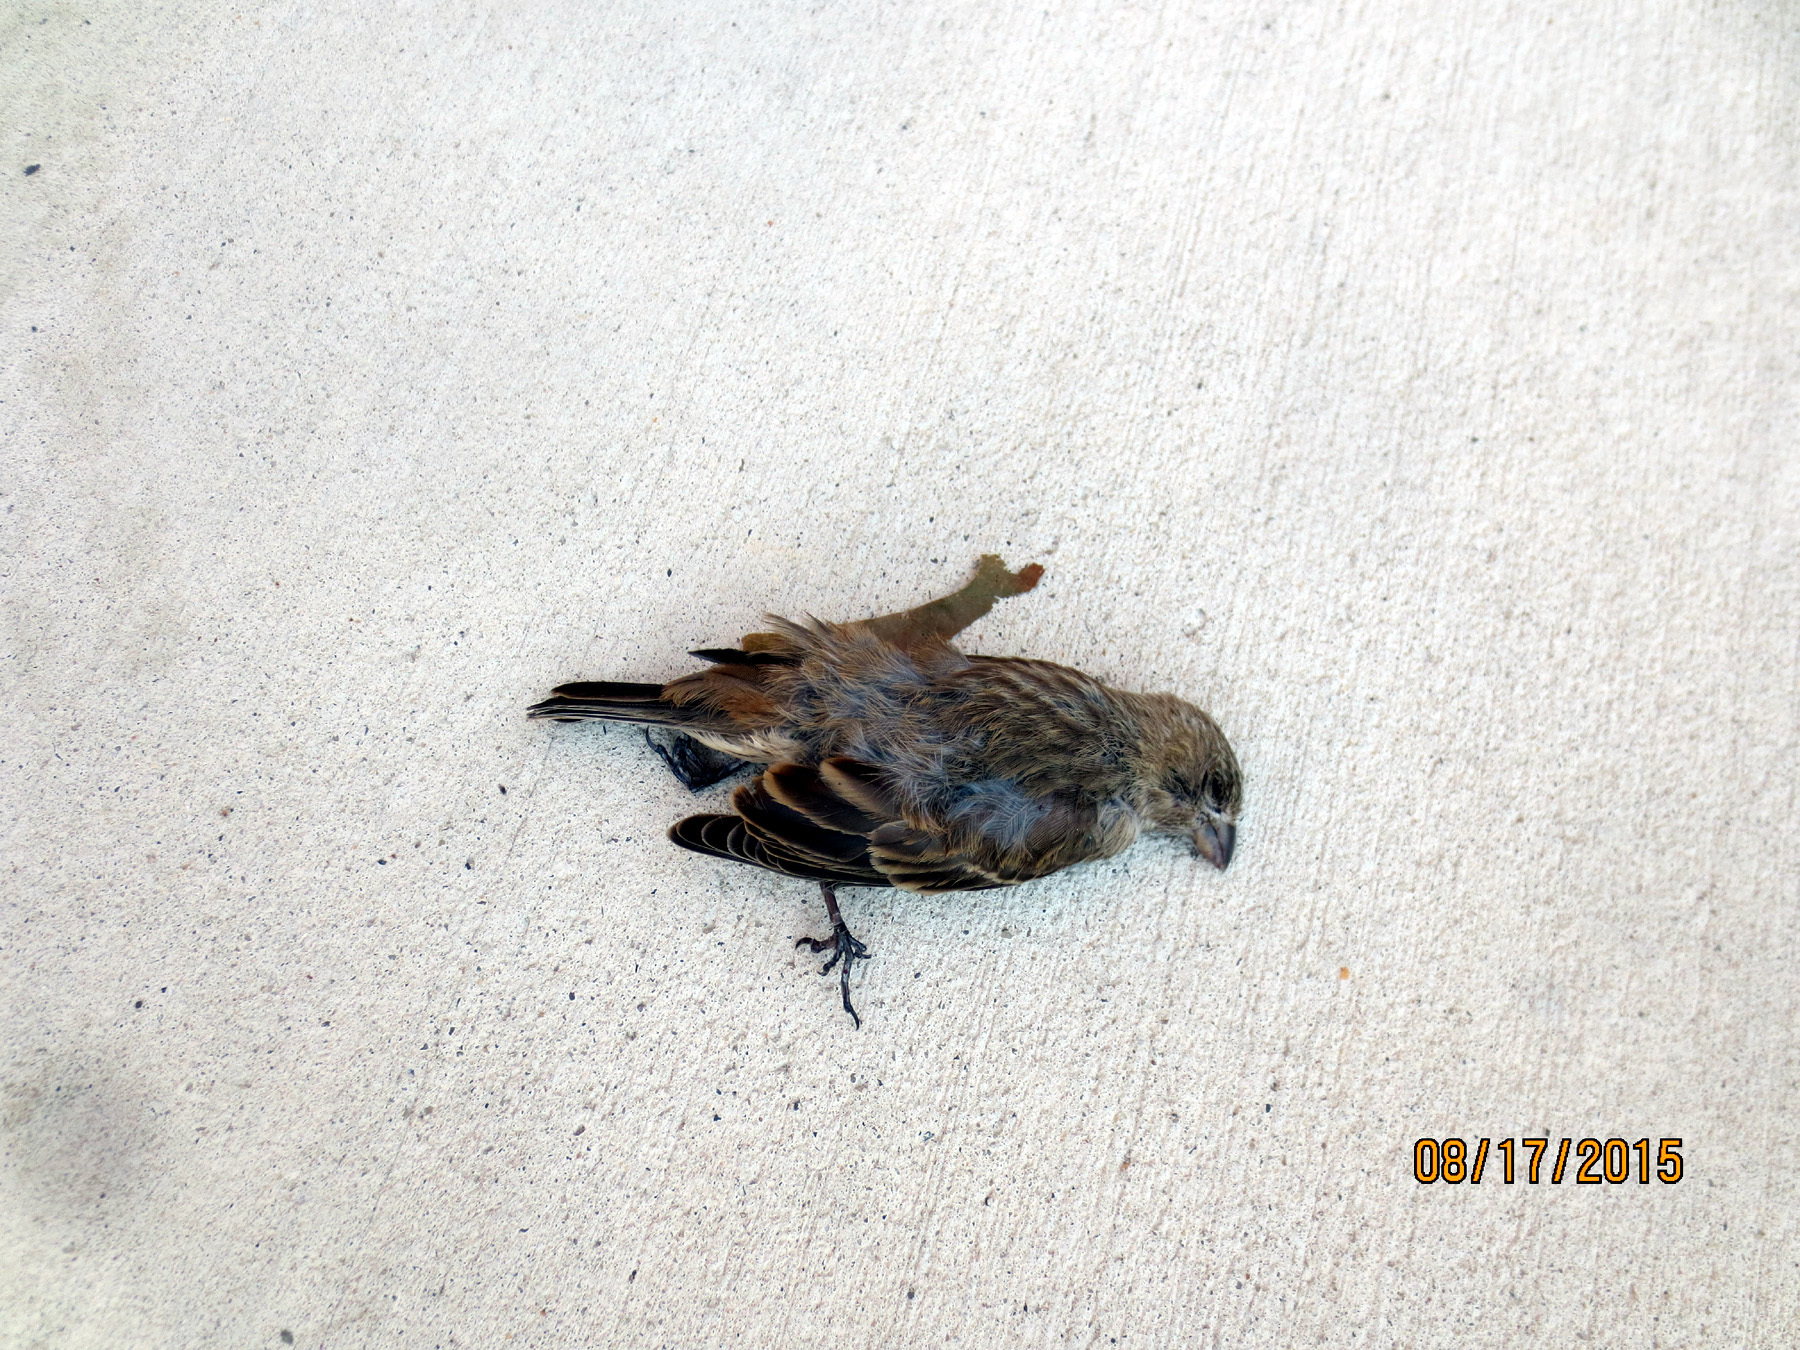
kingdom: Animalia
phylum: Chordata
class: Aves
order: Passeriformes
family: Fringillidae
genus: Haemorhous
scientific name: Haemorhous mexicanus
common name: House finch
